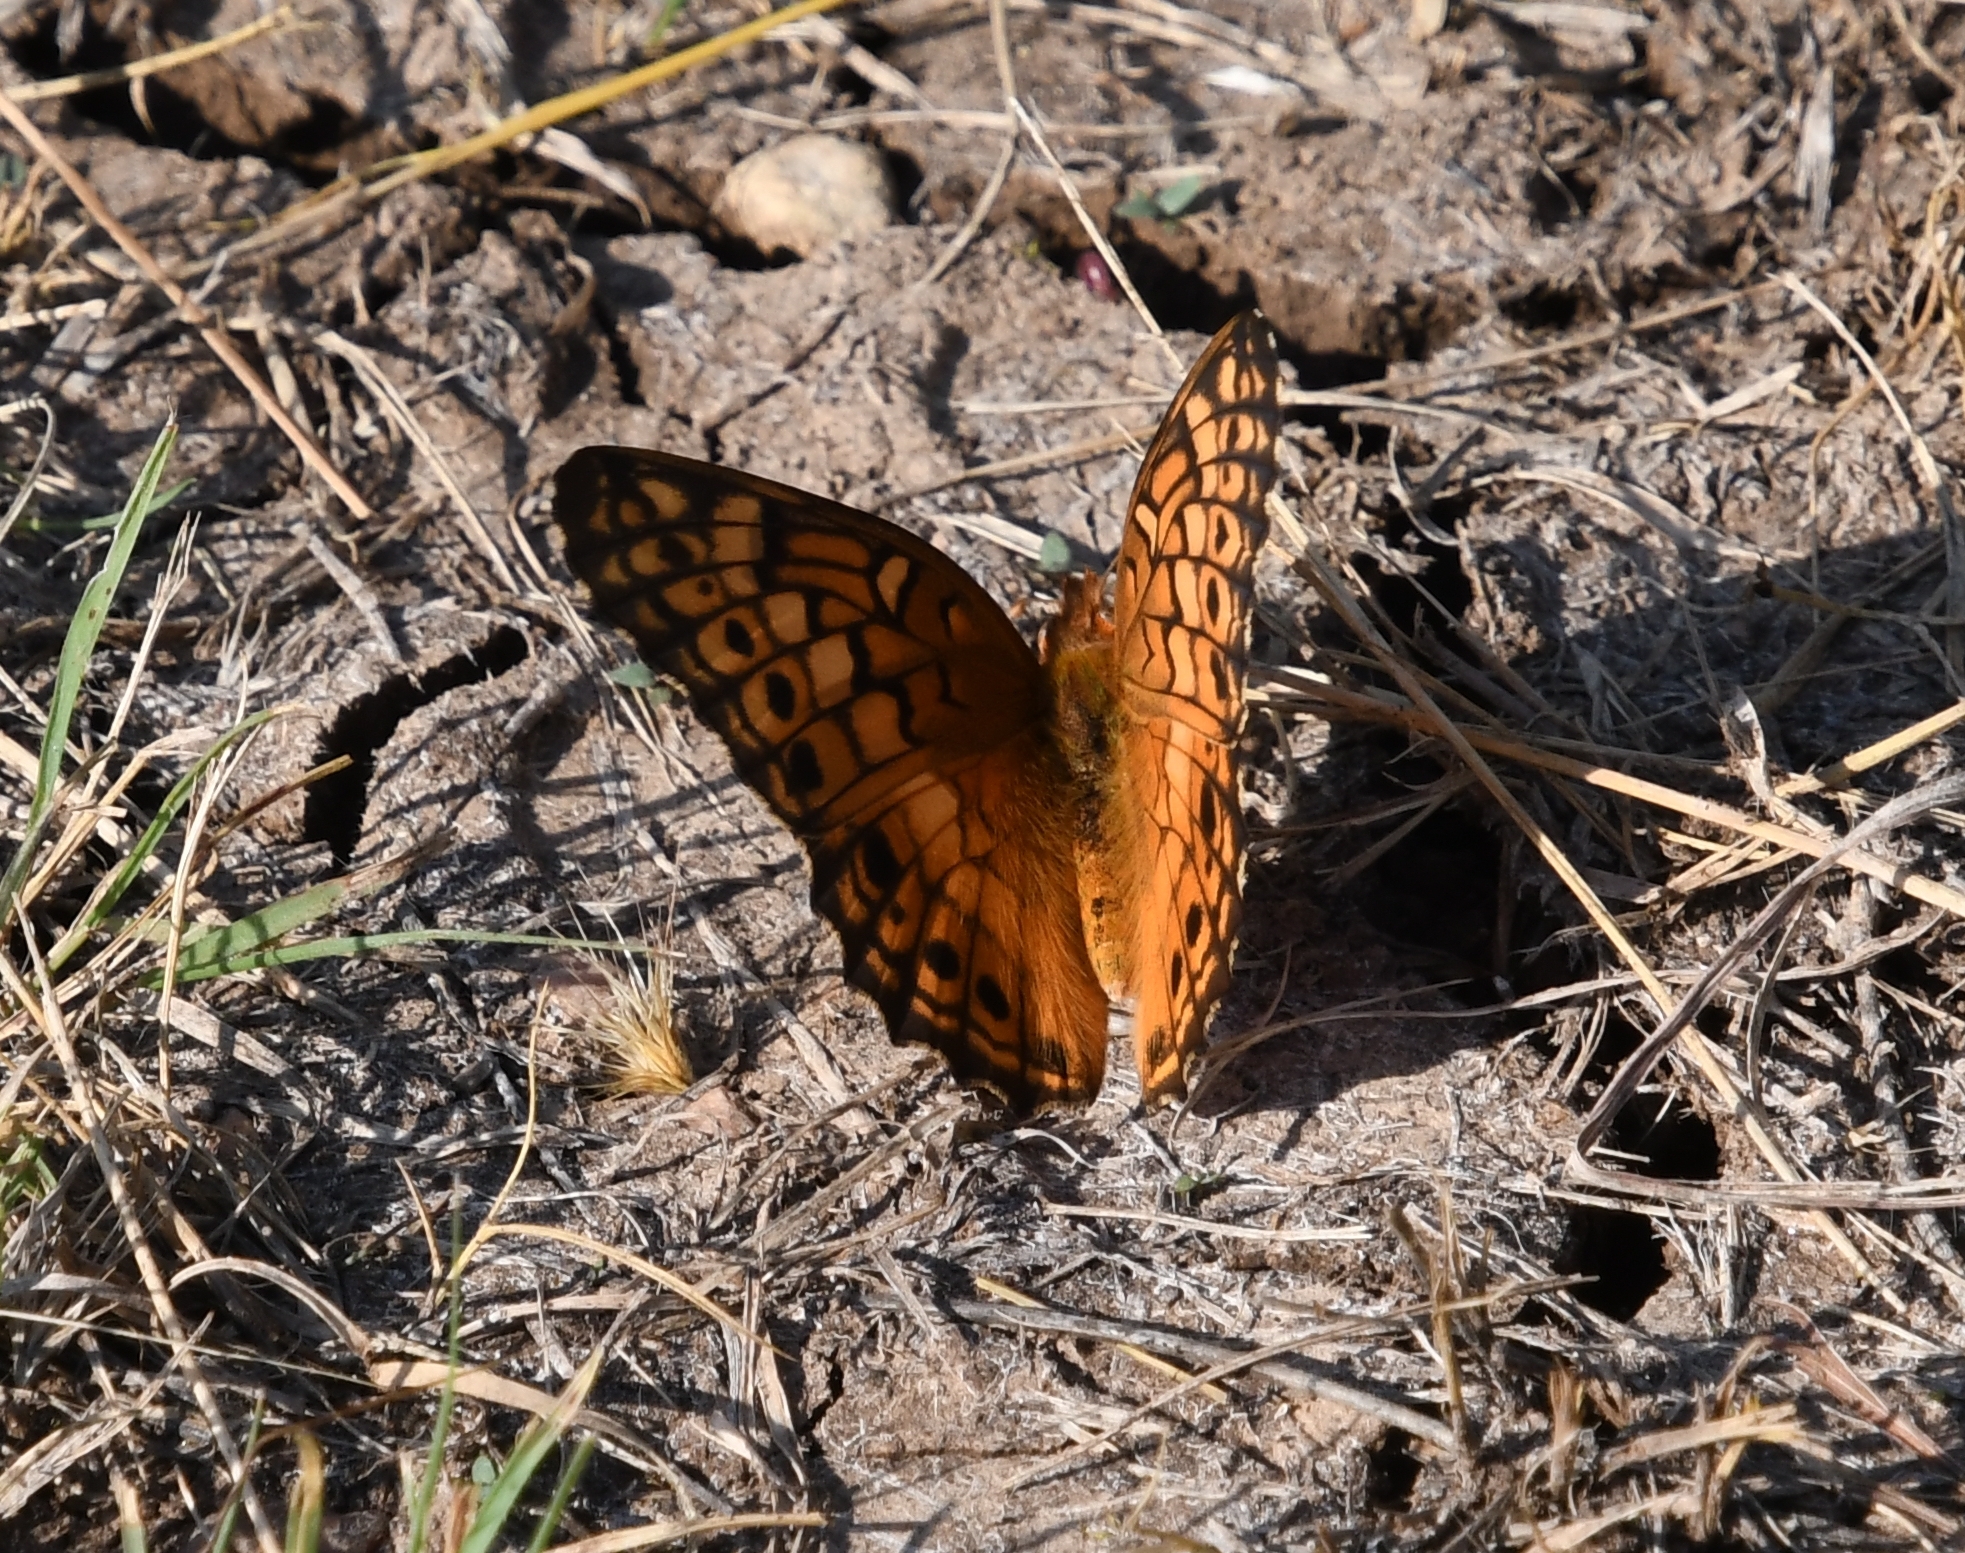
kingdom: Animalia
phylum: Arthropoda
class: Insecta
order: Lepidoptera
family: Nymphalidae
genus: Euptoieta
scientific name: Euptoieta claudia
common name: Variegated fritillary
